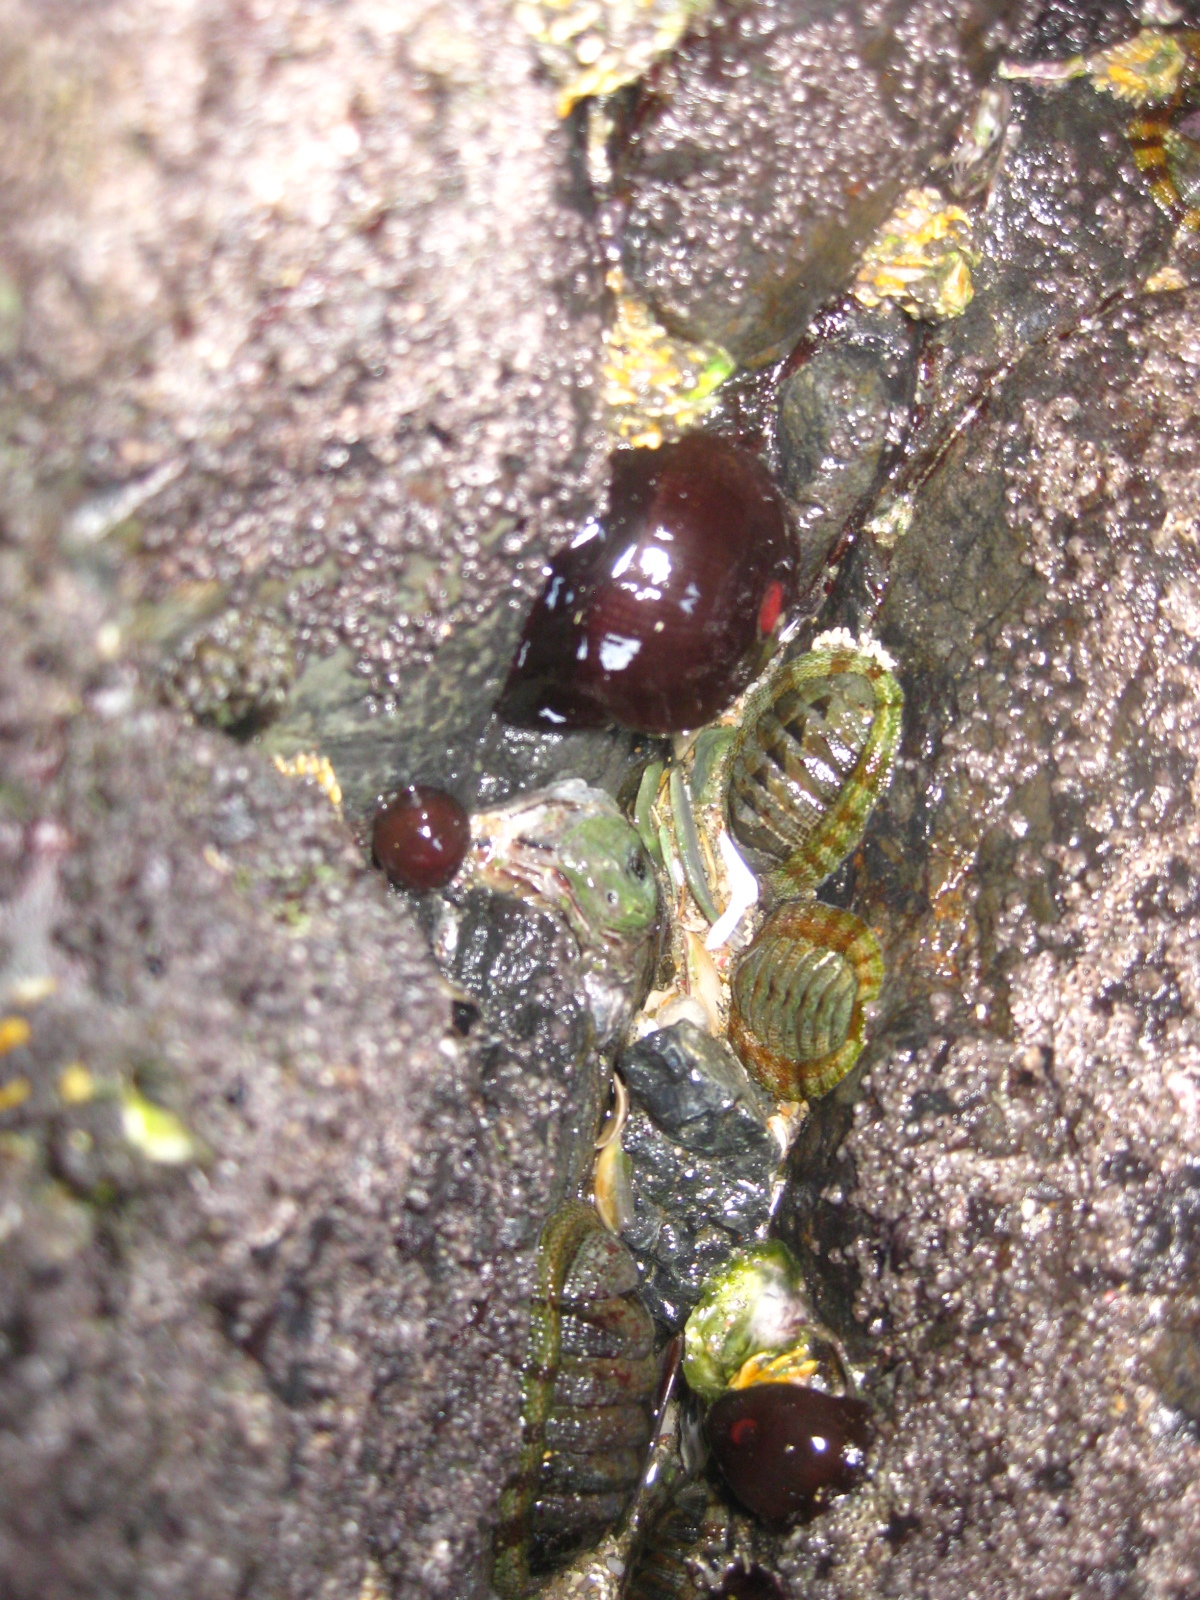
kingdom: Animalia
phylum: Cnidaria
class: Anthozoa
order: Actiniaria
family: Actiniidae
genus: Actinia
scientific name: Actinia tenebrosa
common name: Waratah anemone
